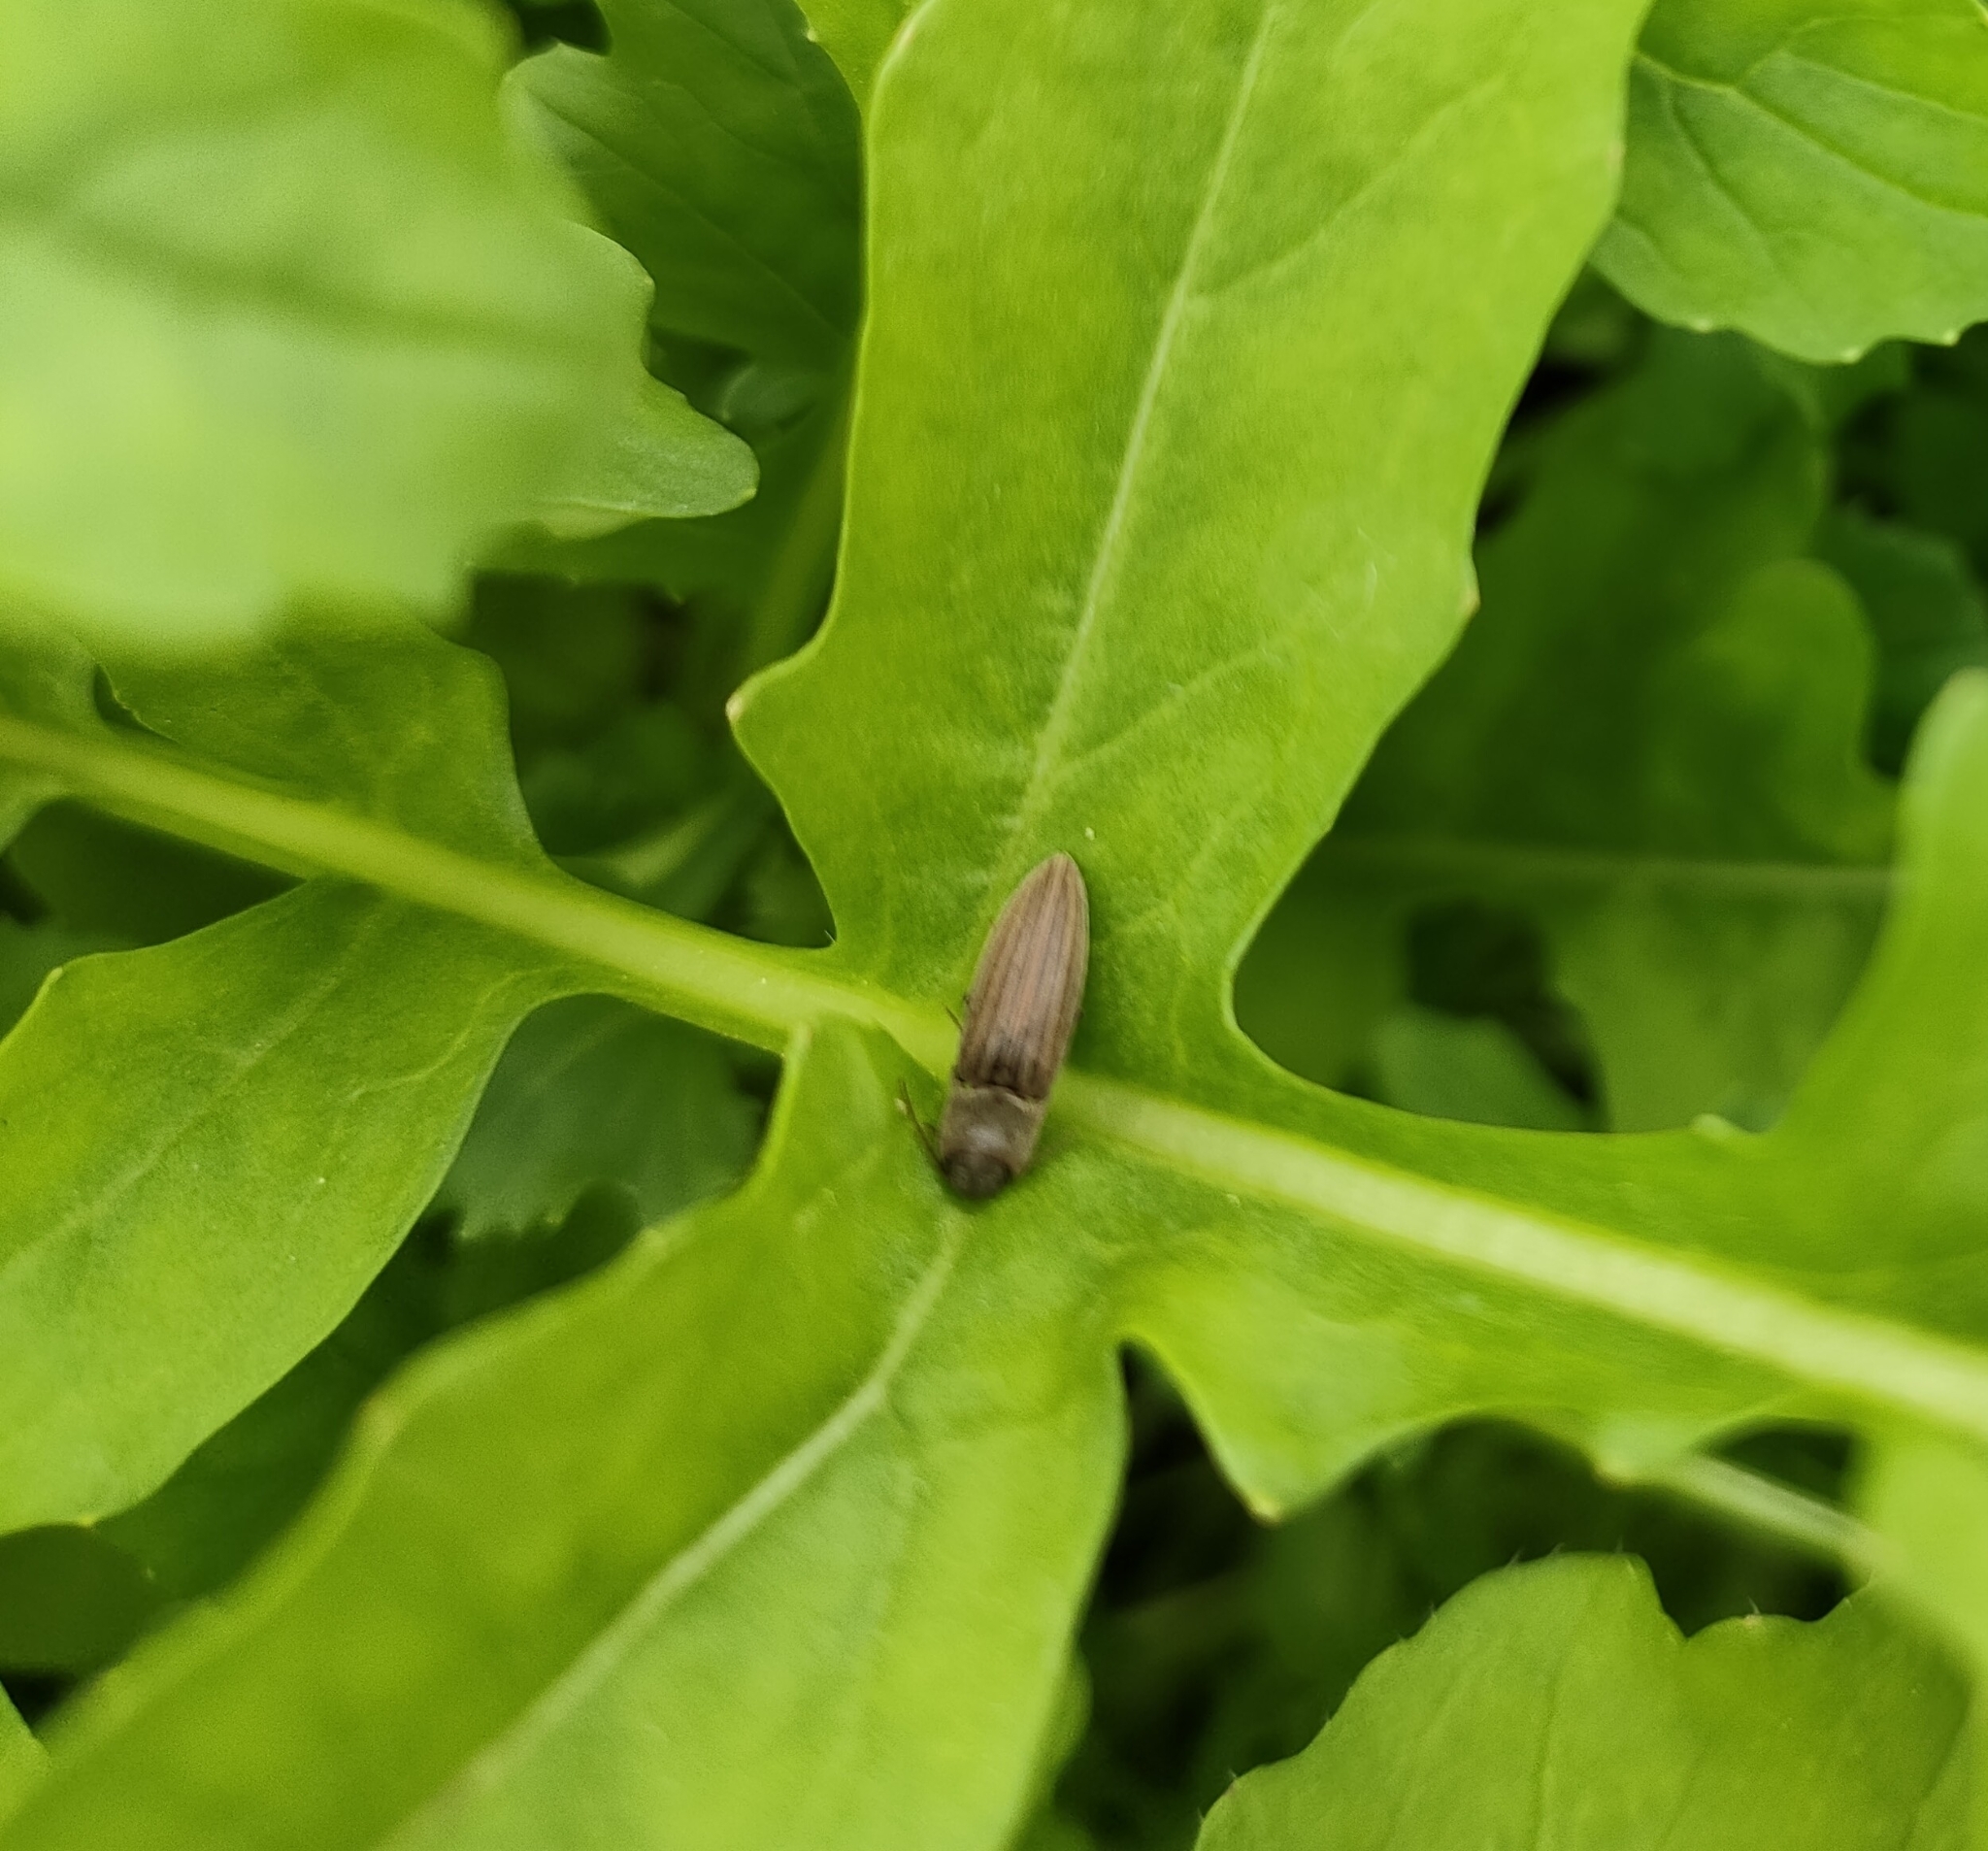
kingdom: Animalia
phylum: Arthropoda
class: Insecta
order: Coleoptera
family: Elateridae
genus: Agriotes
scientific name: Agriotes lineatus
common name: Lined click beetle
